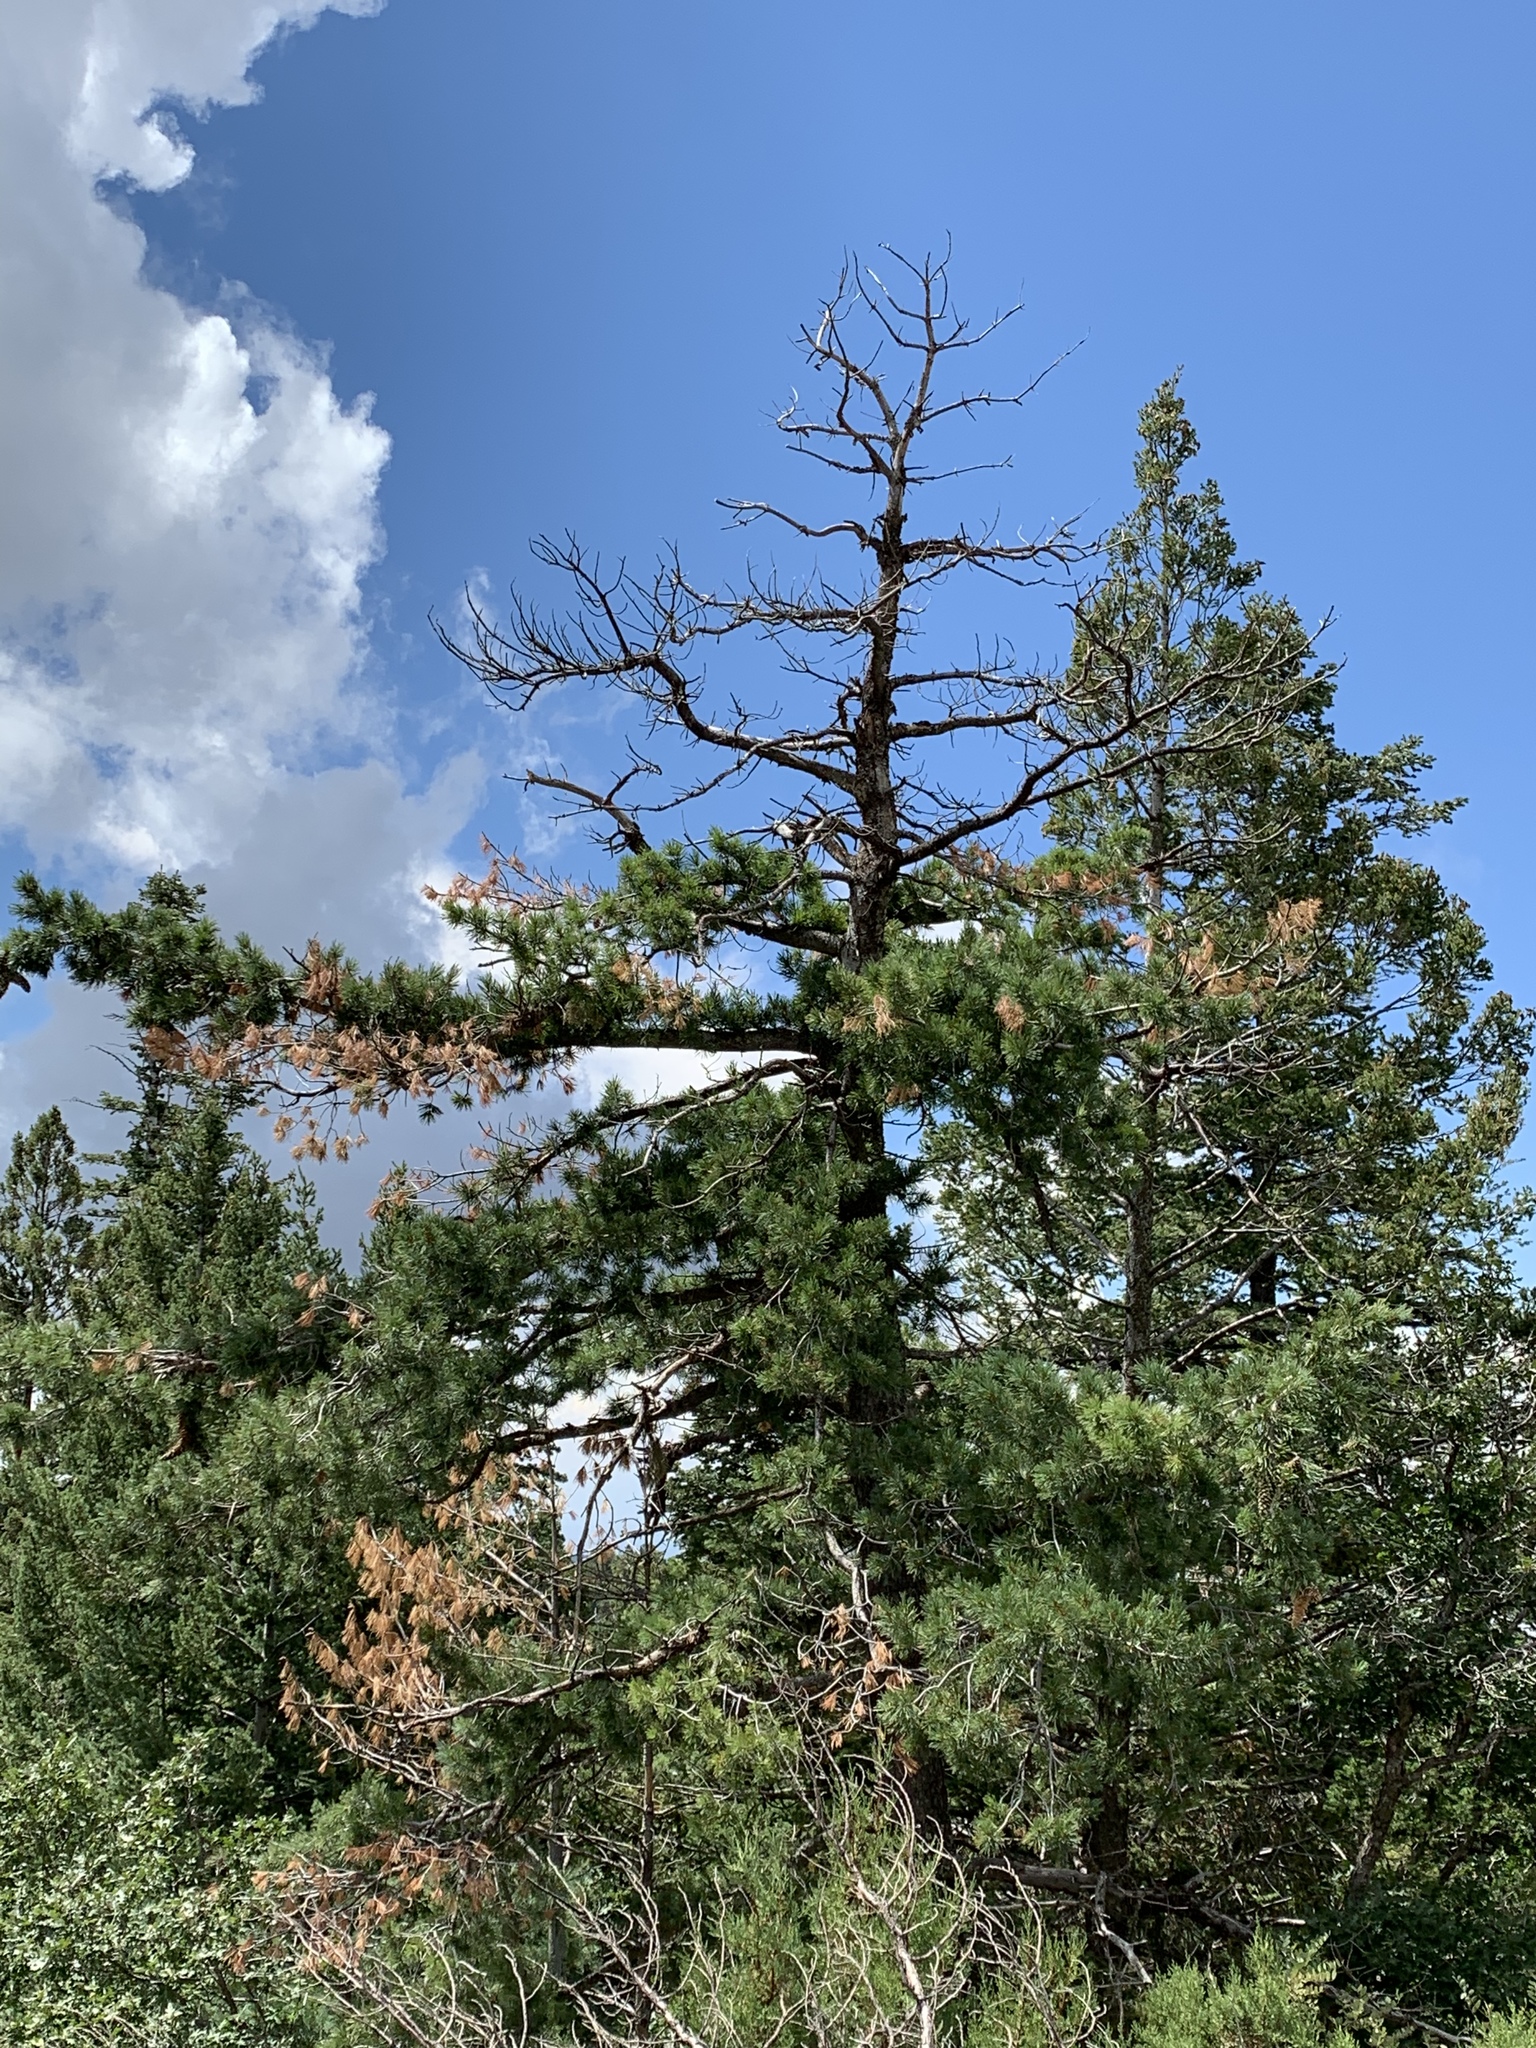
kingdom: Plantae
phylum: Tracheophyta
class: Pinopsida
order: Pinales
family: Pinaceae
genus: Pinus
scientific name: Pinus strobiformis
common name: Southwestern white pine
